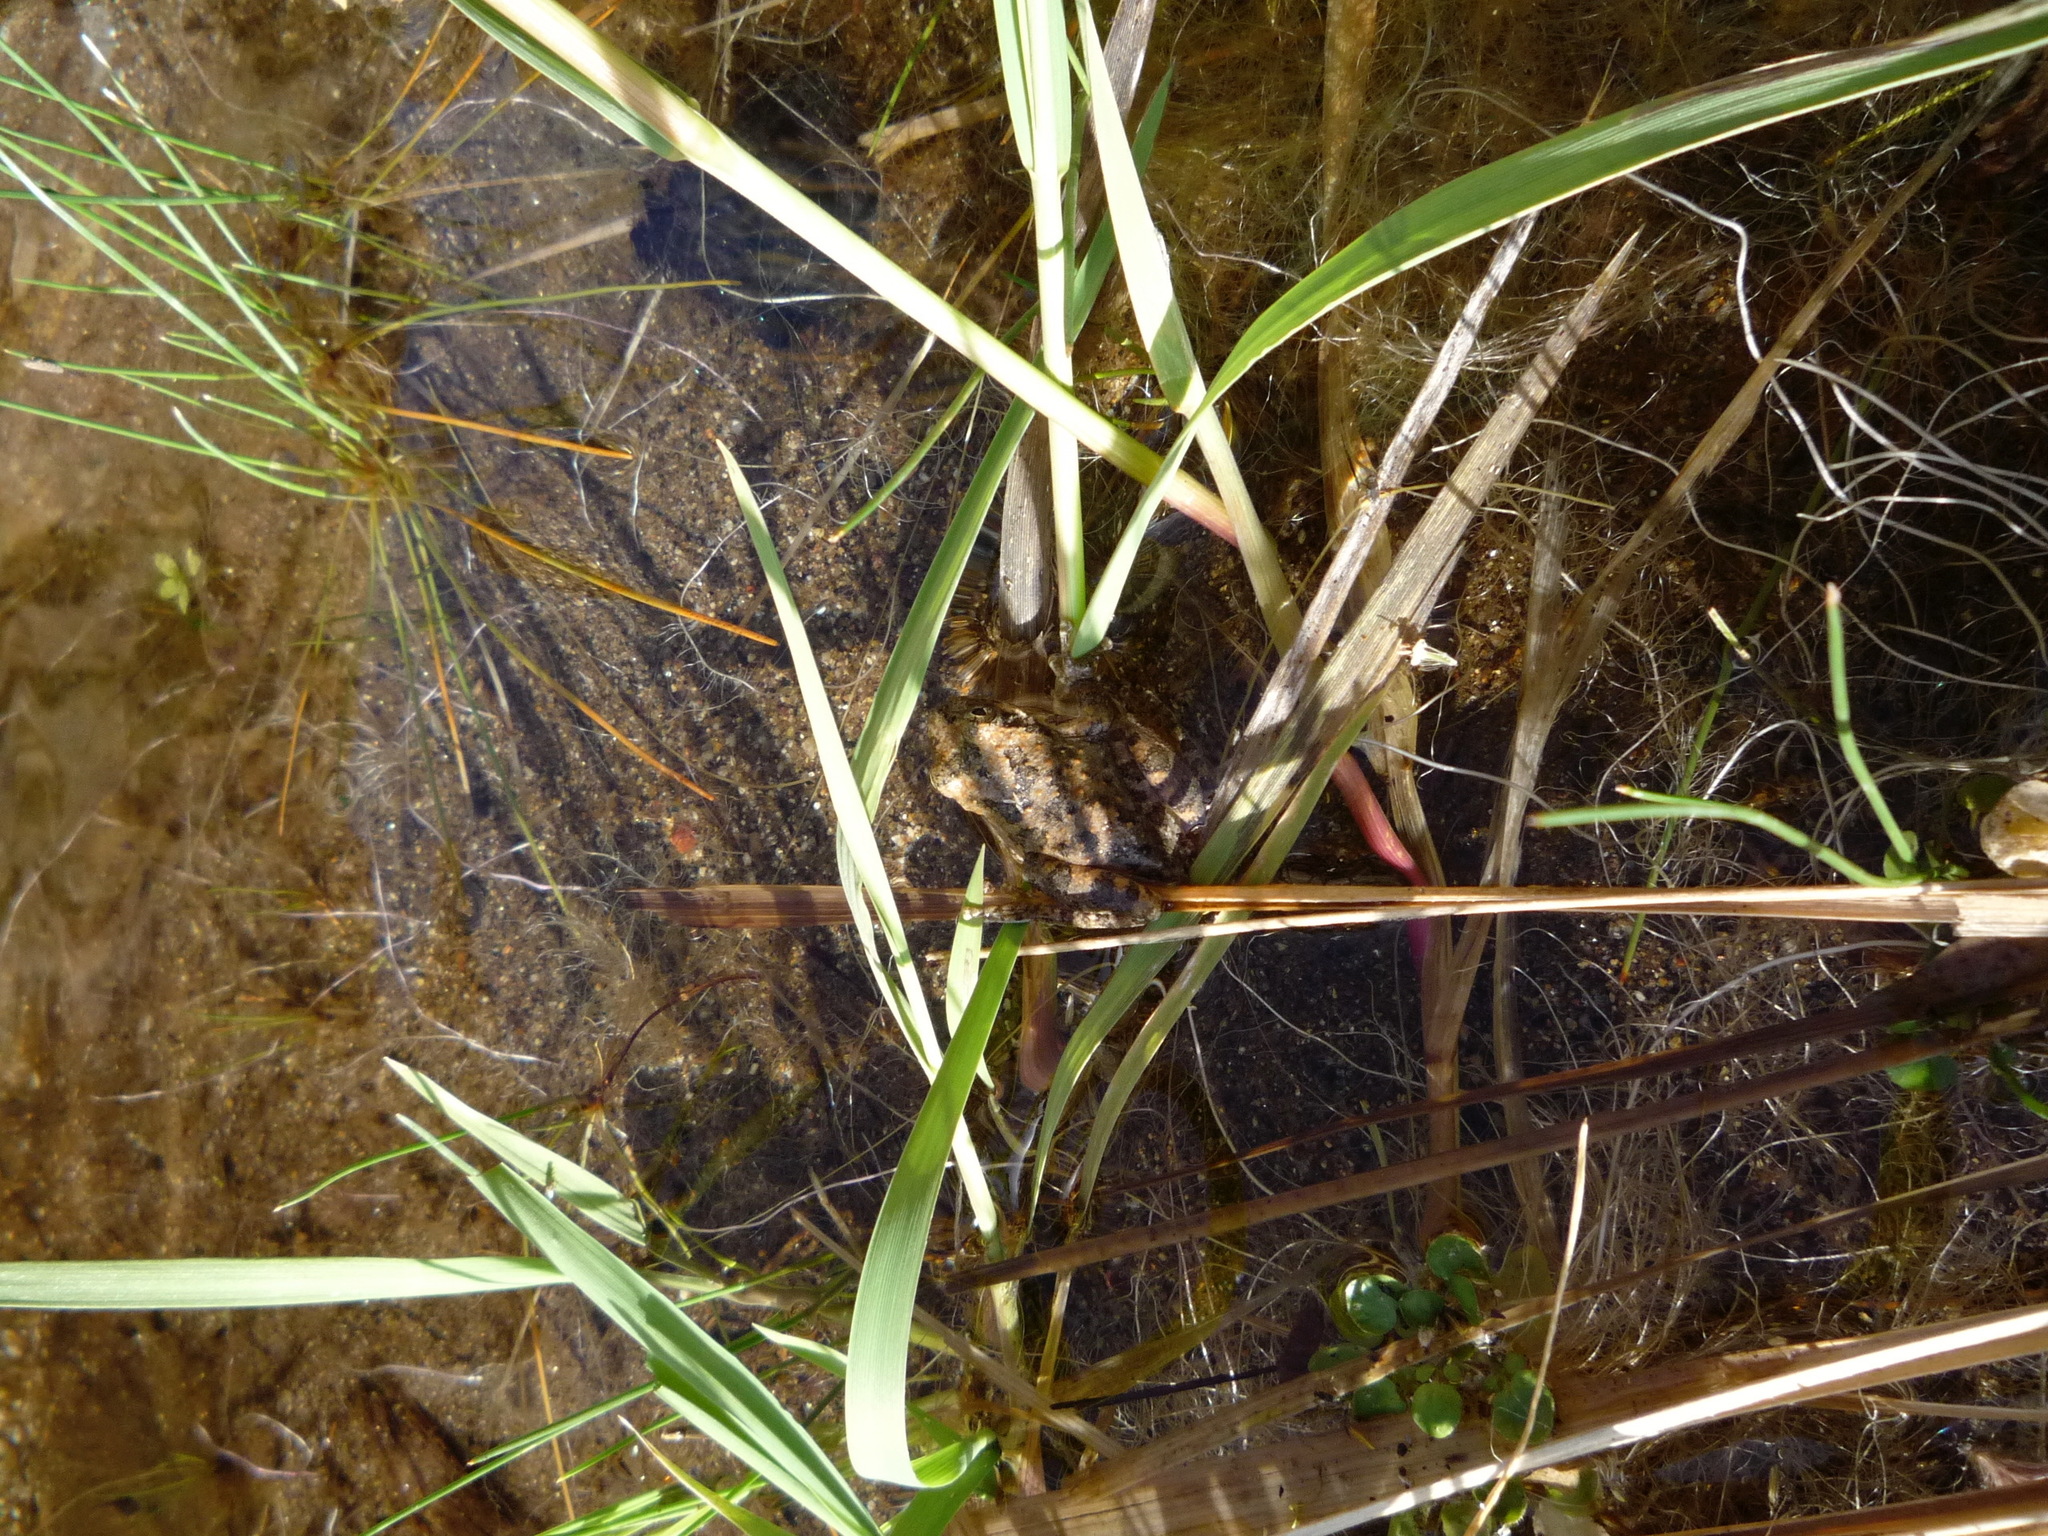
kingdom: Animalia
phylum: Chordata
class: Amphibia
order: Anura
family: Hylidae
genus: Pseudacris
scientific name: Pseudacris cadaverina
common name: California chorus frog
